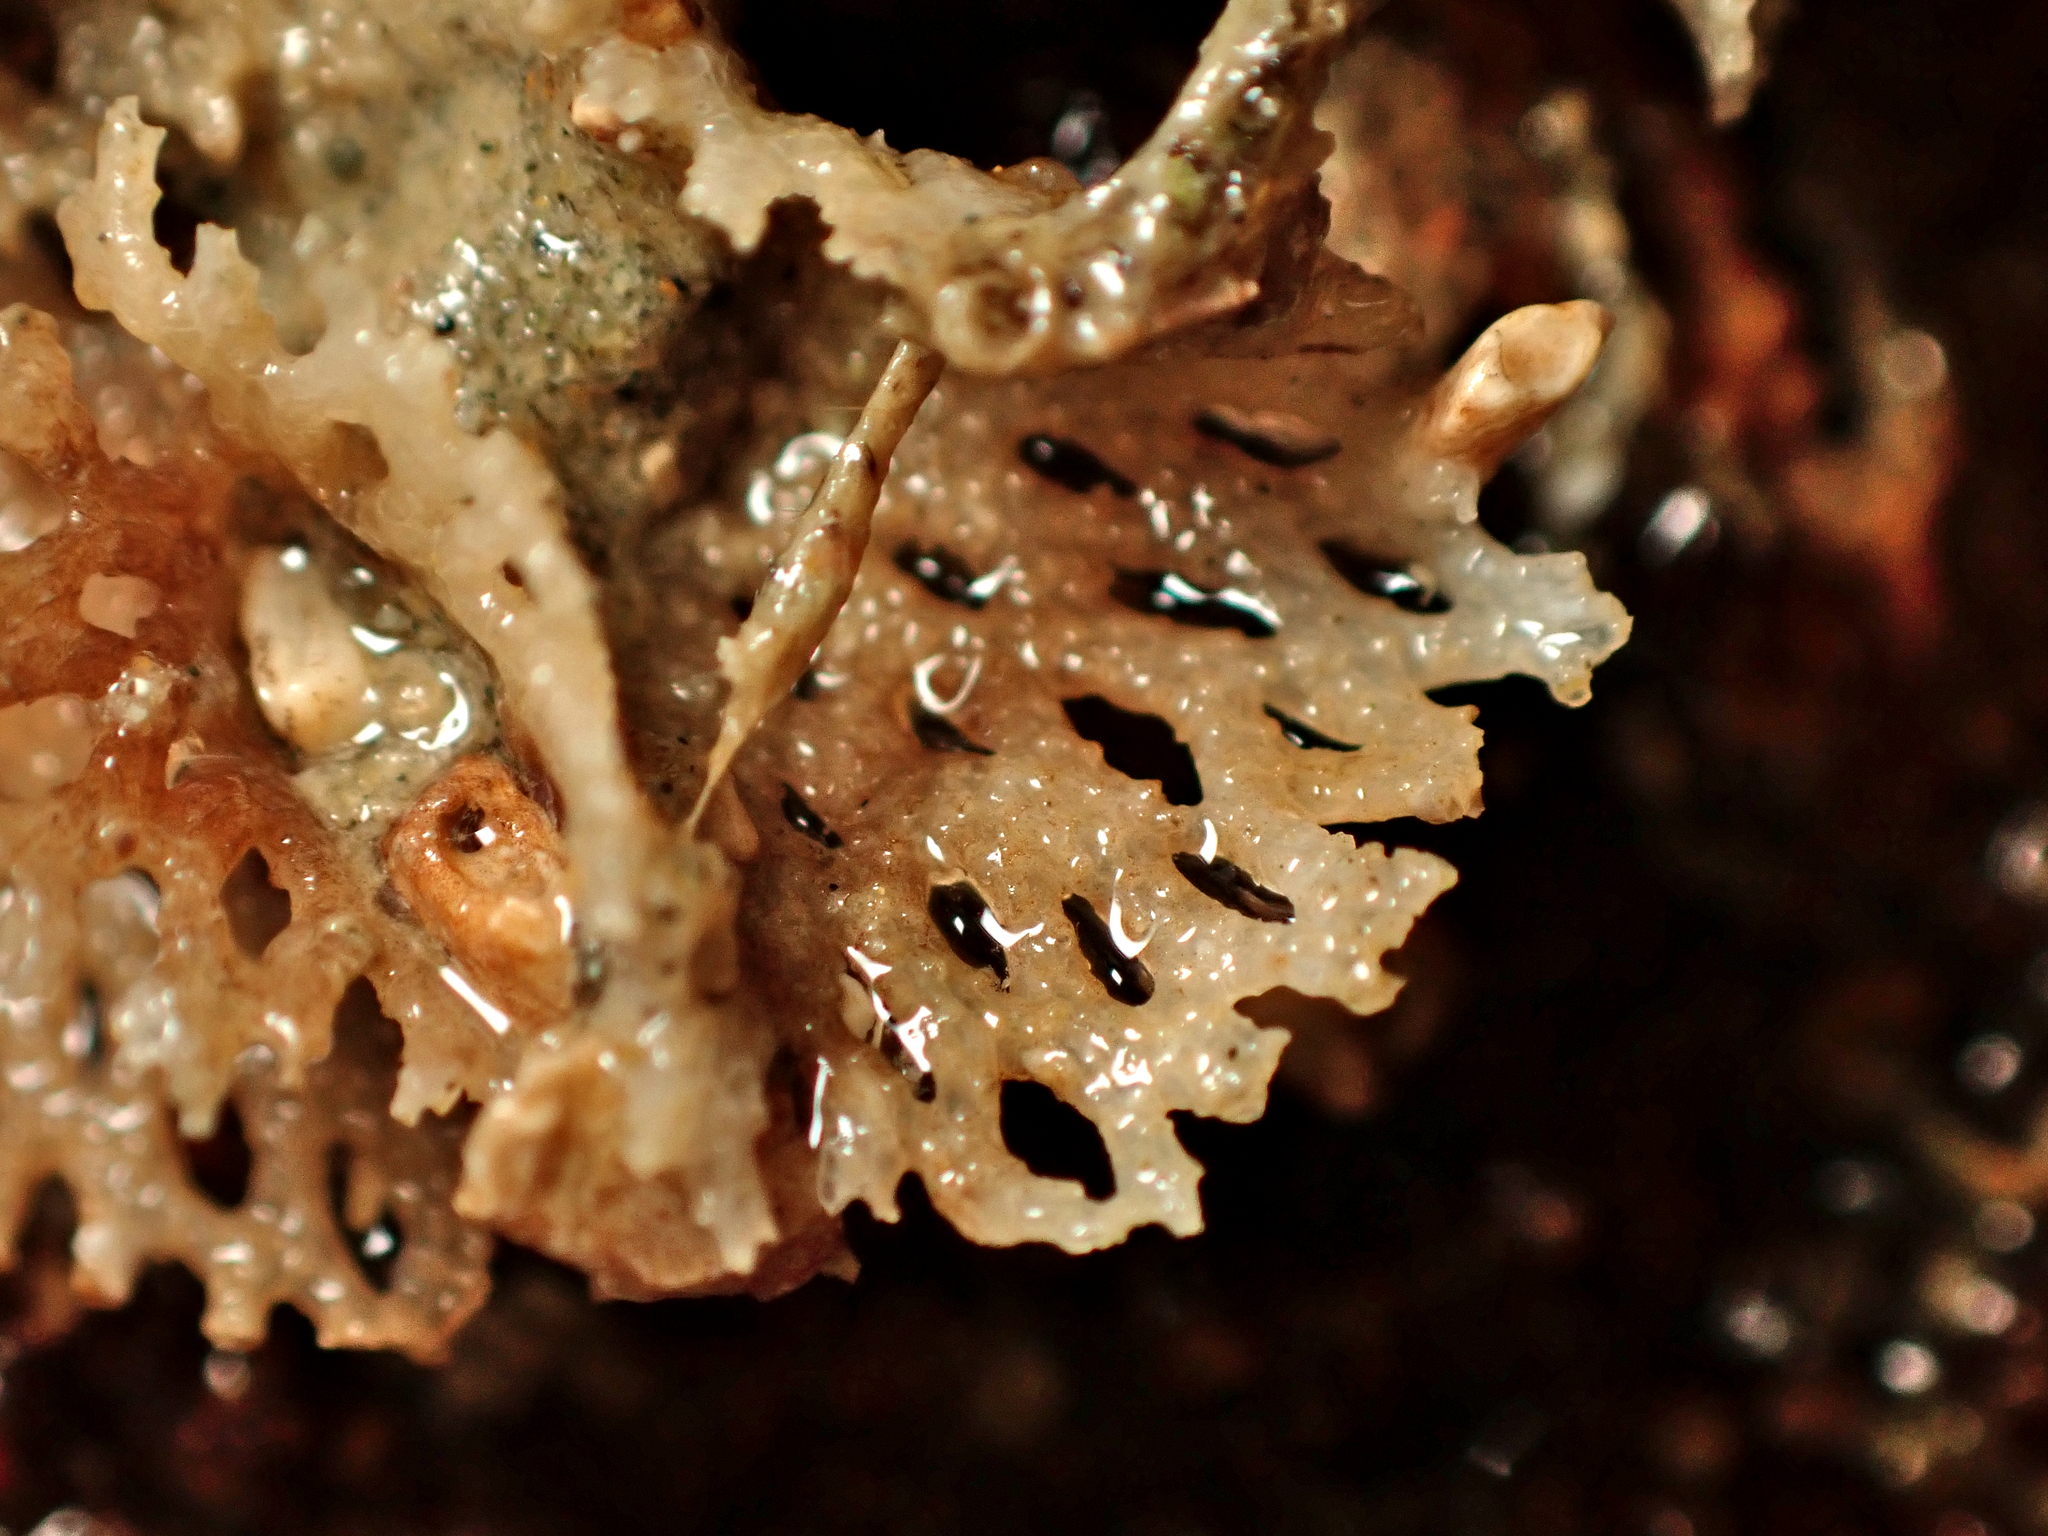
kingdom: Animalia
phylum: Bryozoa
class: Gymnolaemata
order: Cheilostomatida
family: Phidoloporidae
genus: Hippellozoon
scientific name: Hippellozoon novaezelandiae
